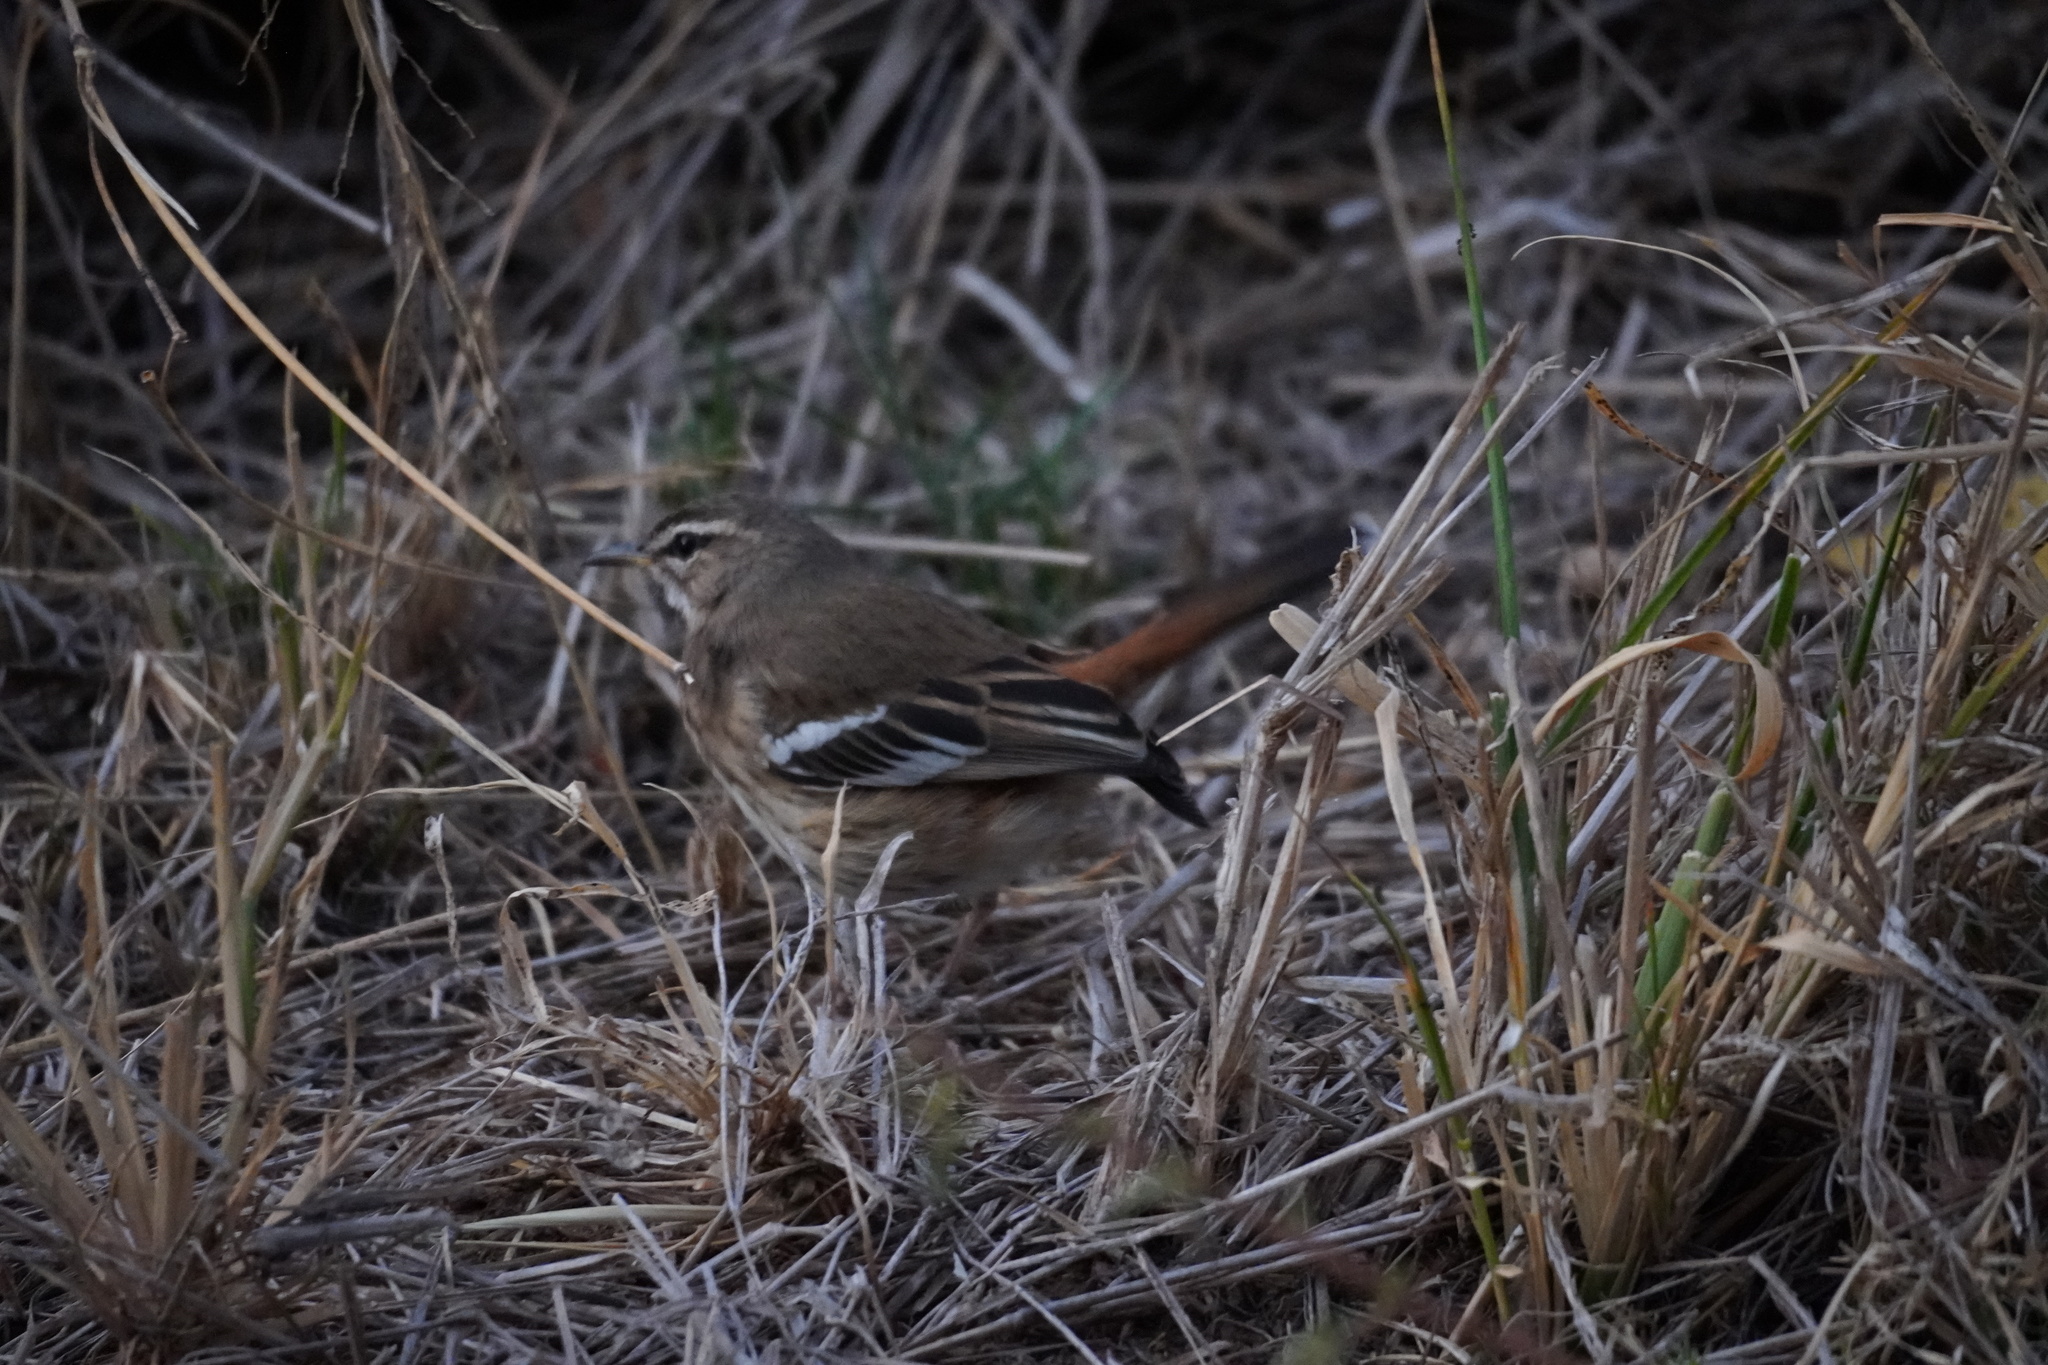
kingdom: Animalia
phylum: Chordata
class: Aves
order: Passeriformes
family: Muscicapidae
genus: Erythropygia
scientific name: Erythropygia leucophrys
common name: White-browed scrub robin
